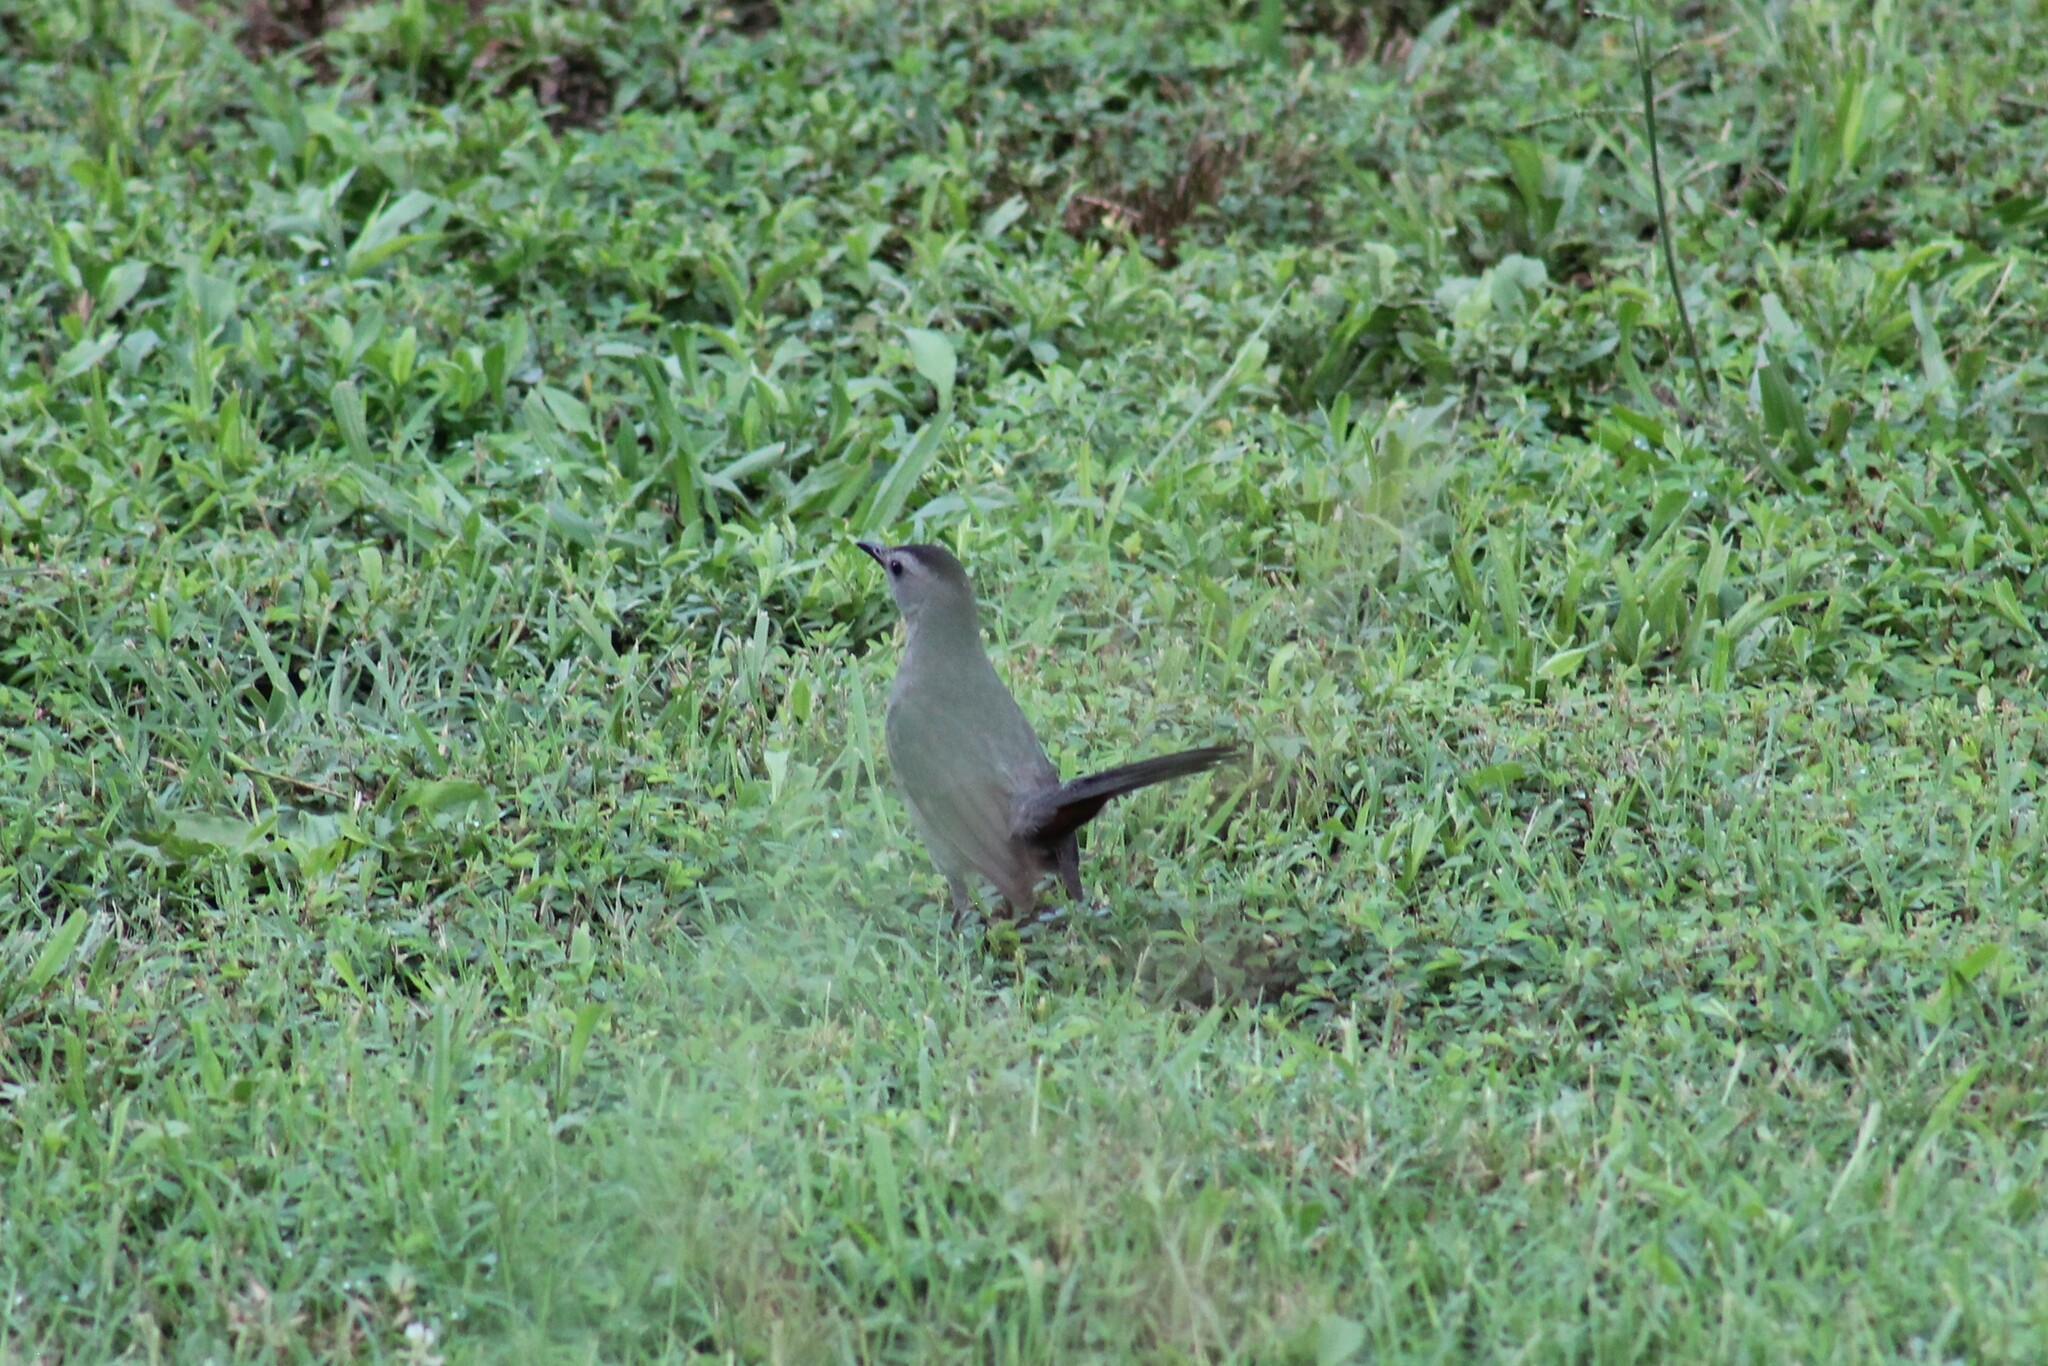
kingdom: Animalia
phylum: Chordata
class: Aves
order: Passeriformes
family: Mimidae
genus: Dumetella
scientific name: Dumetella carolinensis
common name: Gray catbird
